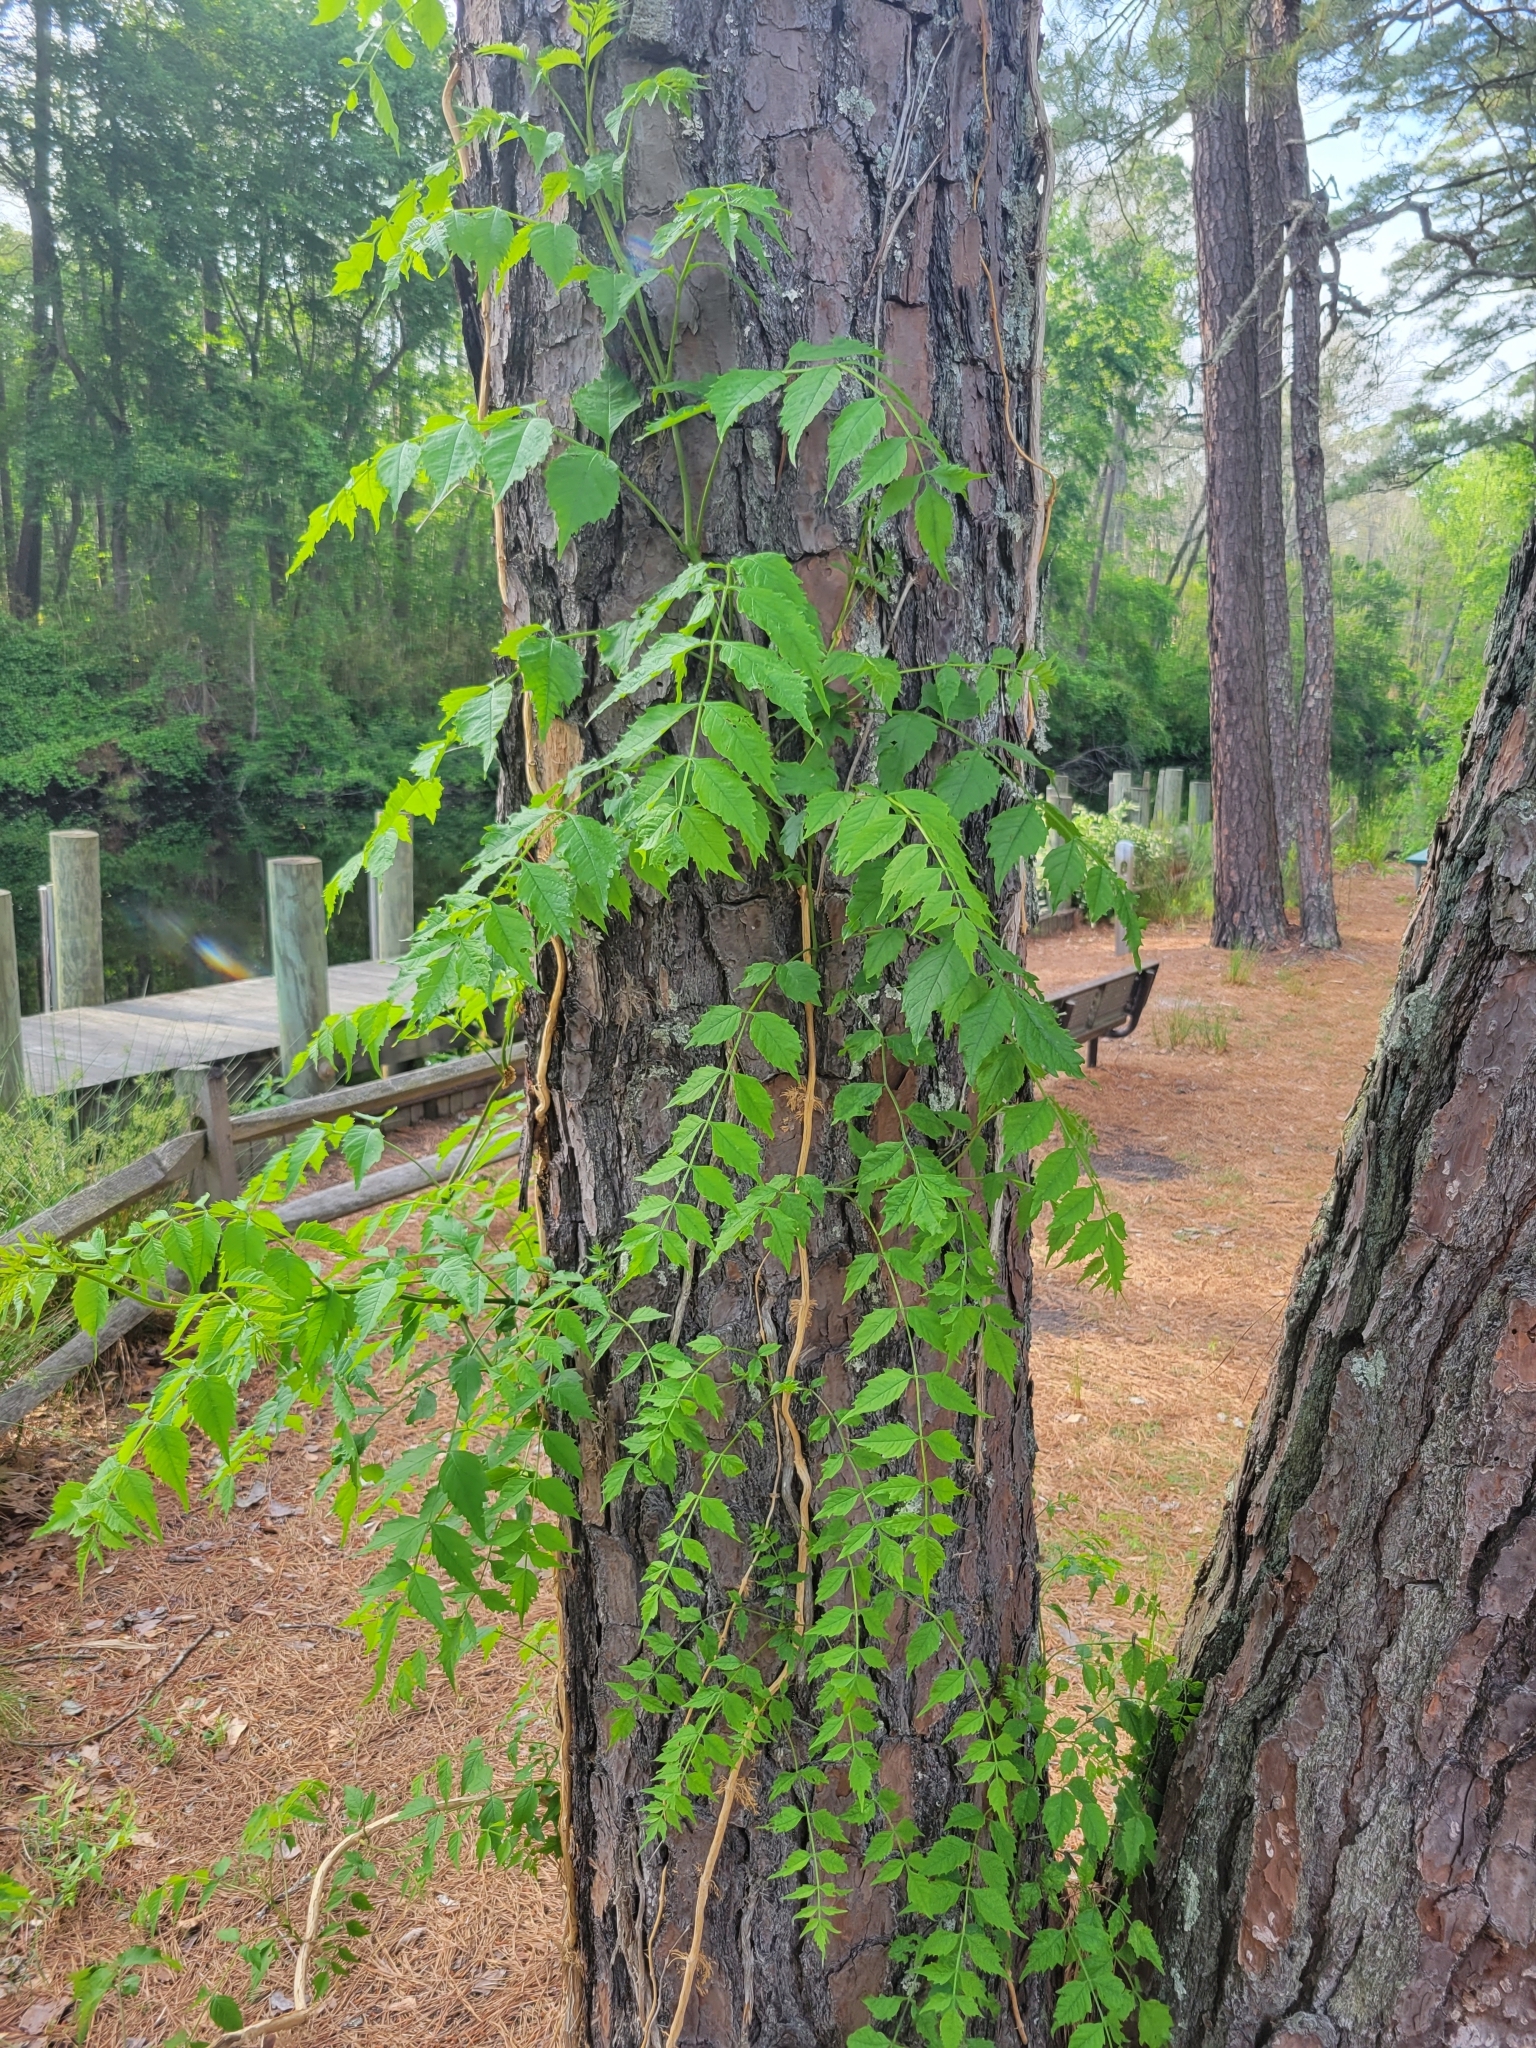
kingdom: Plantae
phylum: Tracheophyta
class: Magnoliopsida
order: Lamiales
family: Bignoniaceae
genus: Campsis
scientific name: Campsis radicans
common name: Trumpet-creeper
